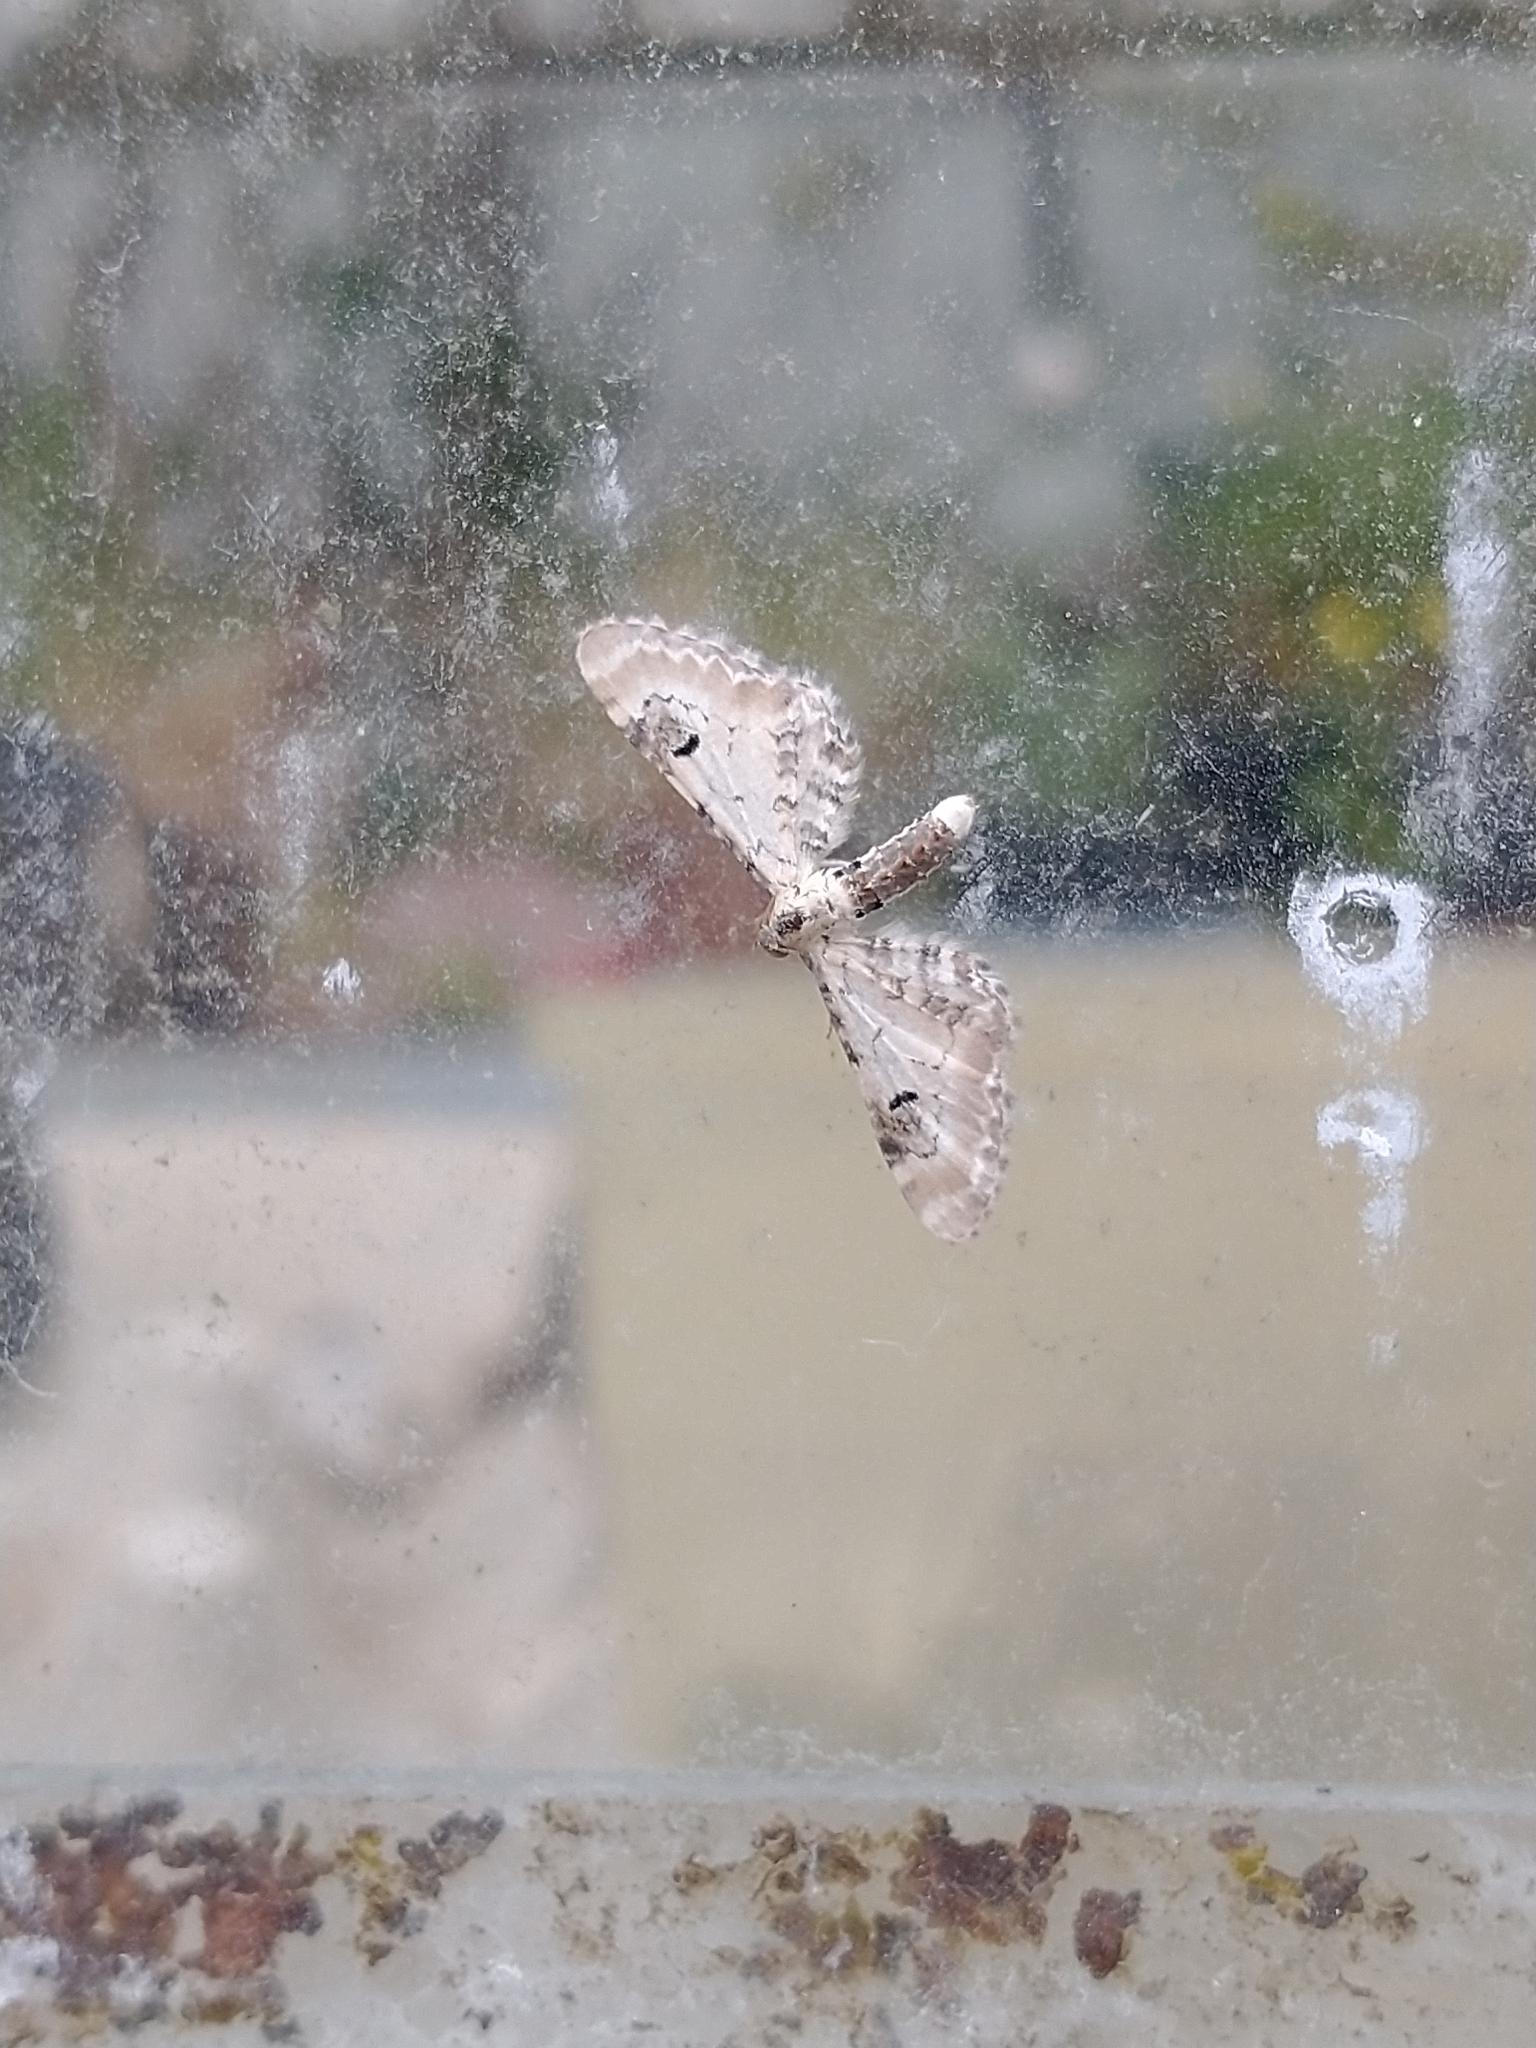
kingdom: Animalia
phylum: Arthropoda
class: Insecta
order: Lepidoptera
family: Geometridae
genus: Eupithecia
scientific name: Eupithecia centaureata
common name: Lime-speck pug
